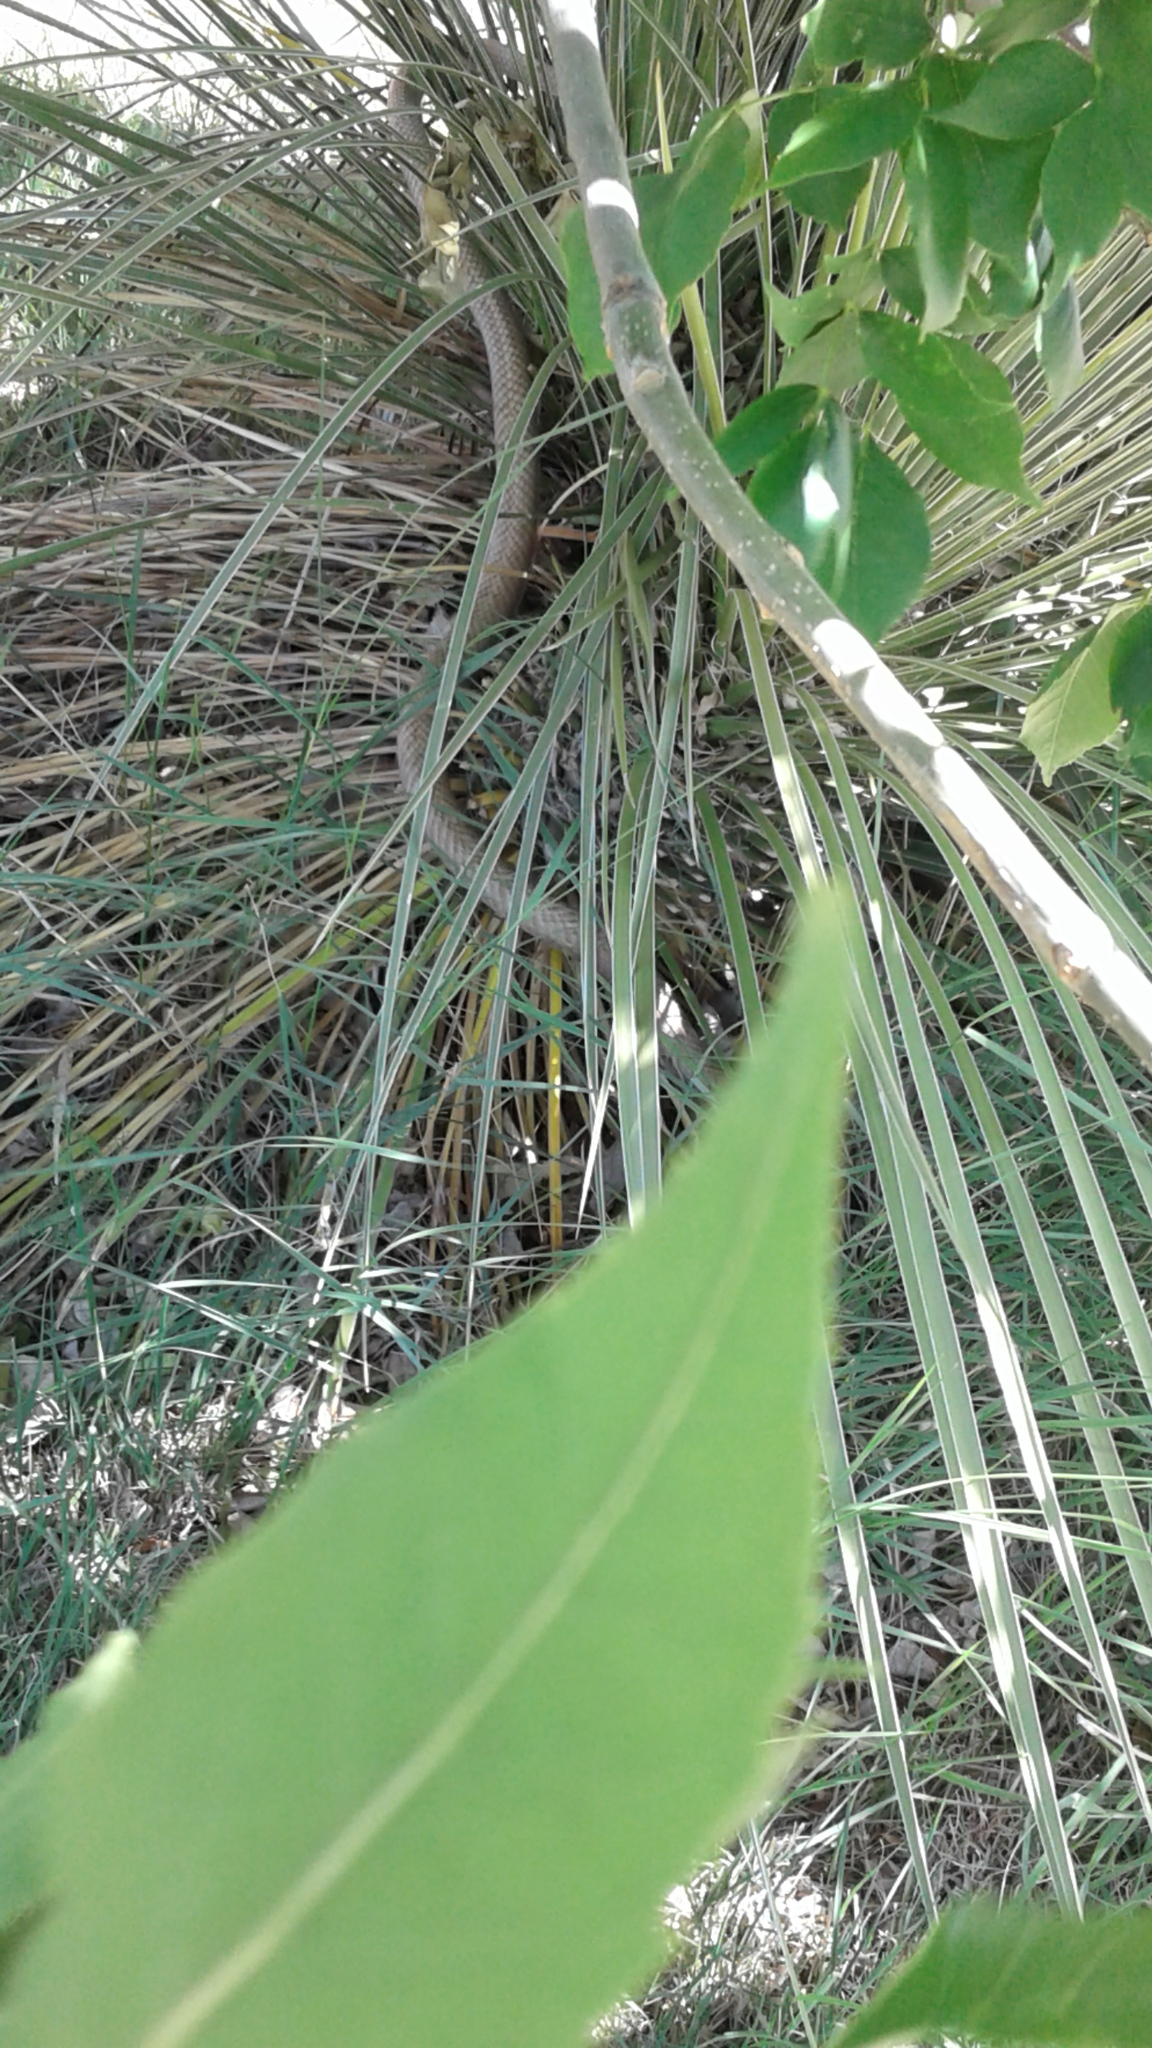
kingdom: Animalia
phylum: Chordata
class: Squamata
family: Colubridae
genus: Masticophis
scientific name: Masticophis flagellum
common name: Coachwhip
